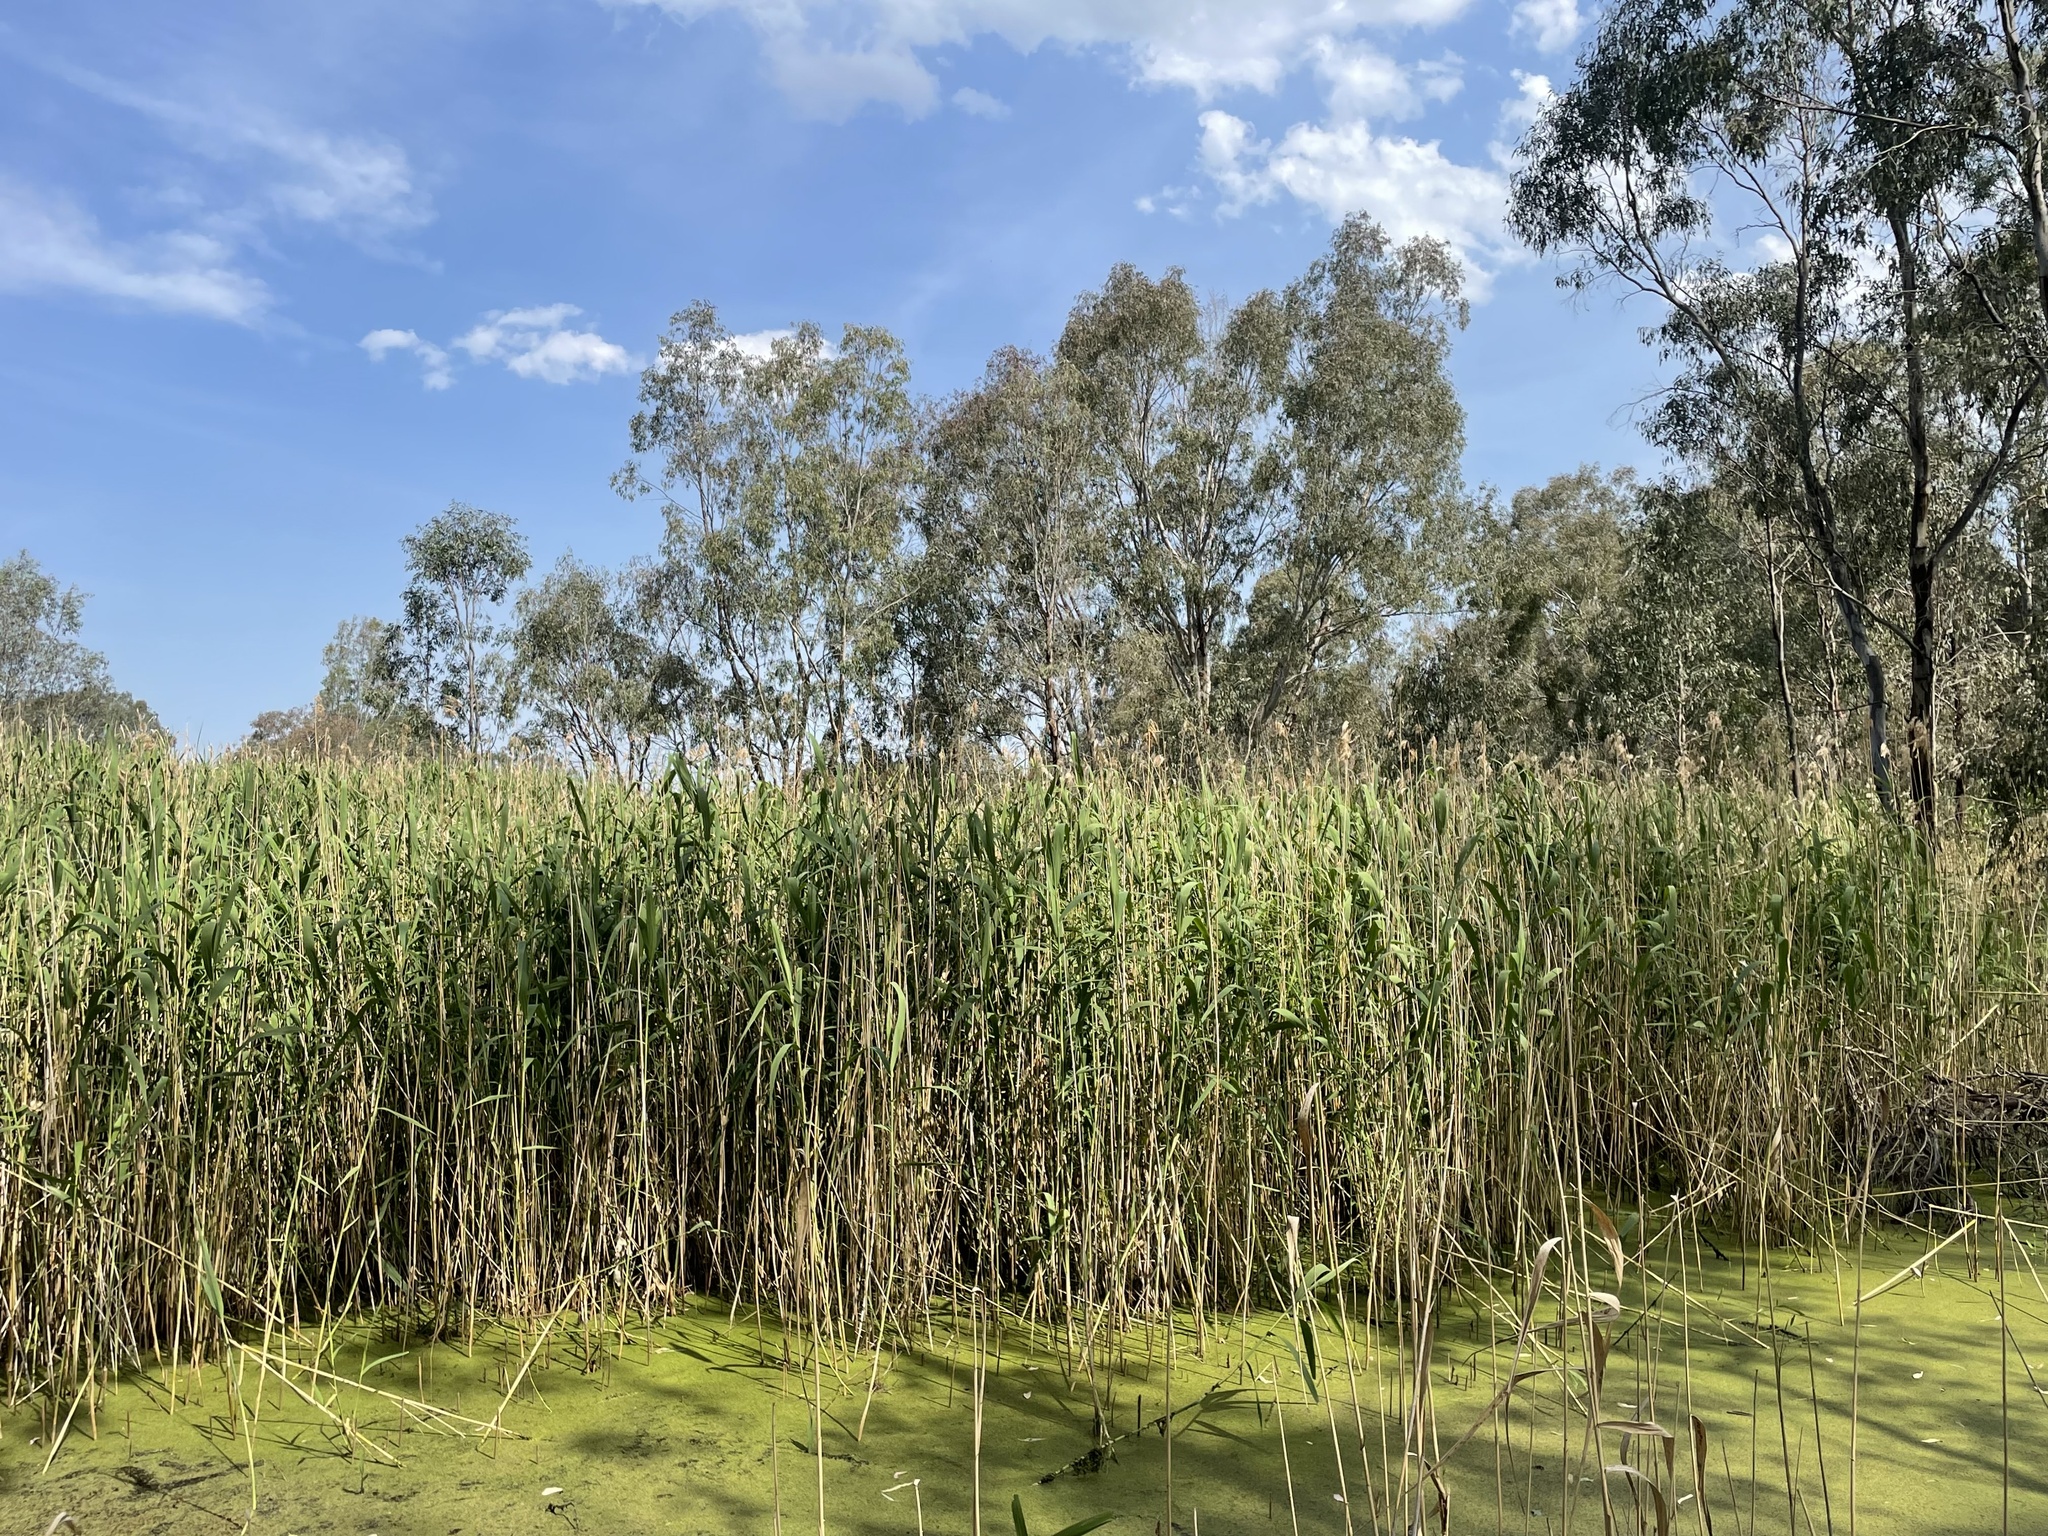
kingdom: Plantae
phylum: Tracheophyta
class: Liliopsida
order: Poales
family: Poaceae
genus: Phragmites
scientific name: Phragmites australis
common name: Common reed
